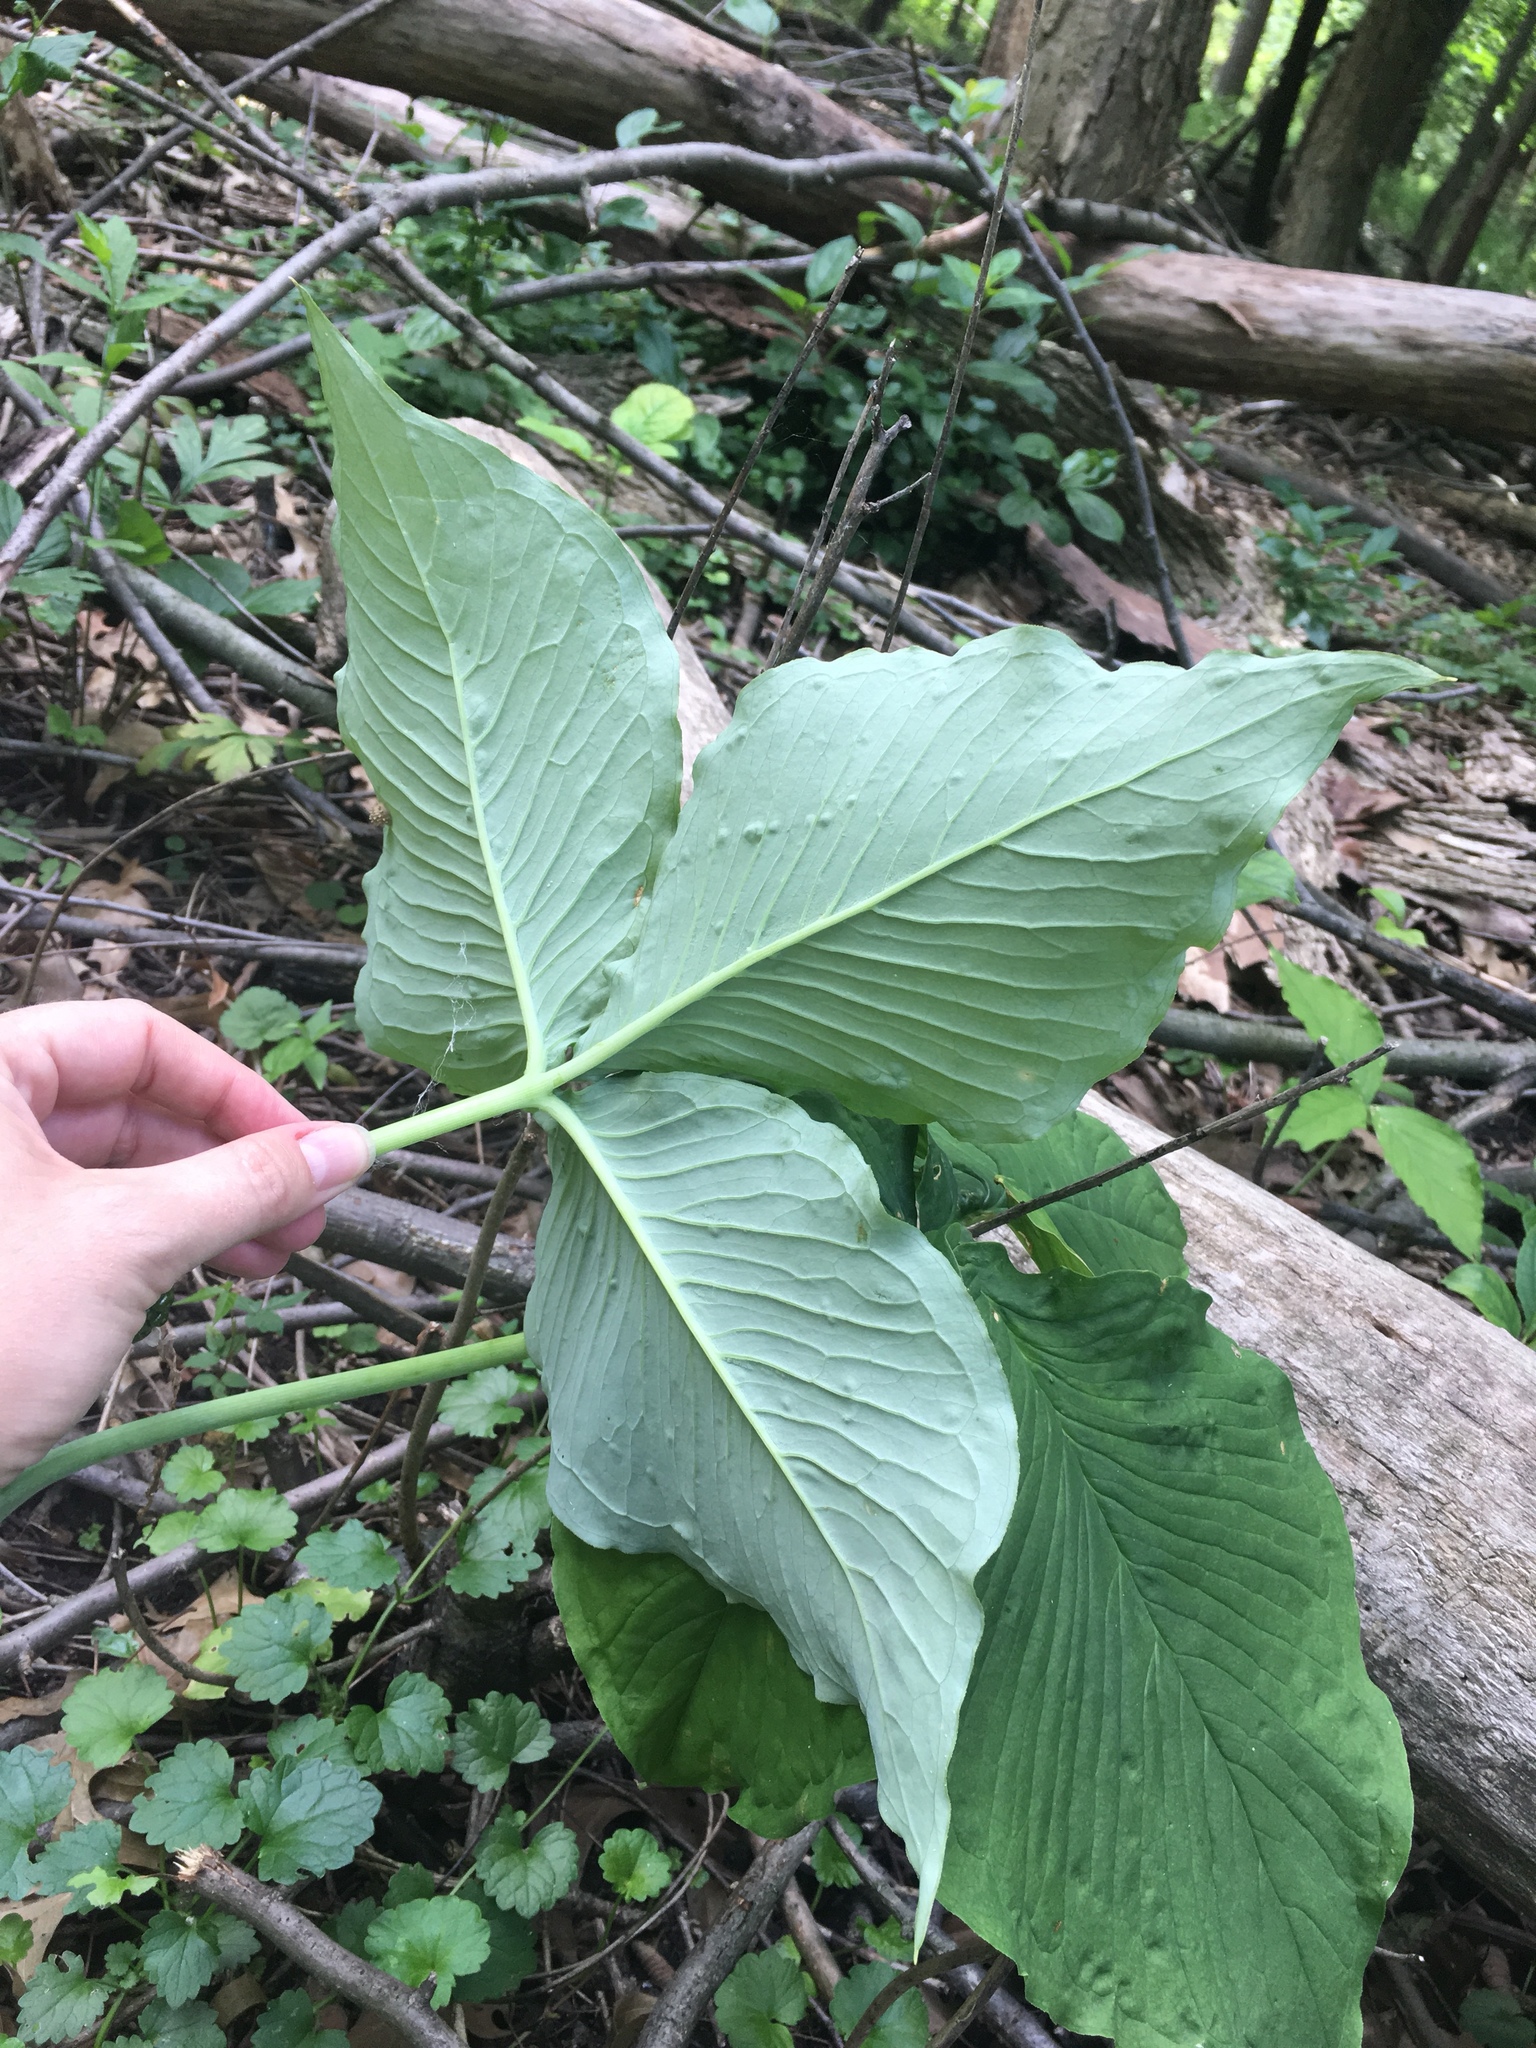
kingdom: Plantae
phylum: Tracheophyta
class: Liliopsida
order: Alismatales
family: Araceae
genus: Arisaema
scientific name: Arisaema triphyllum
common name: Jack-in-the-pulpit
